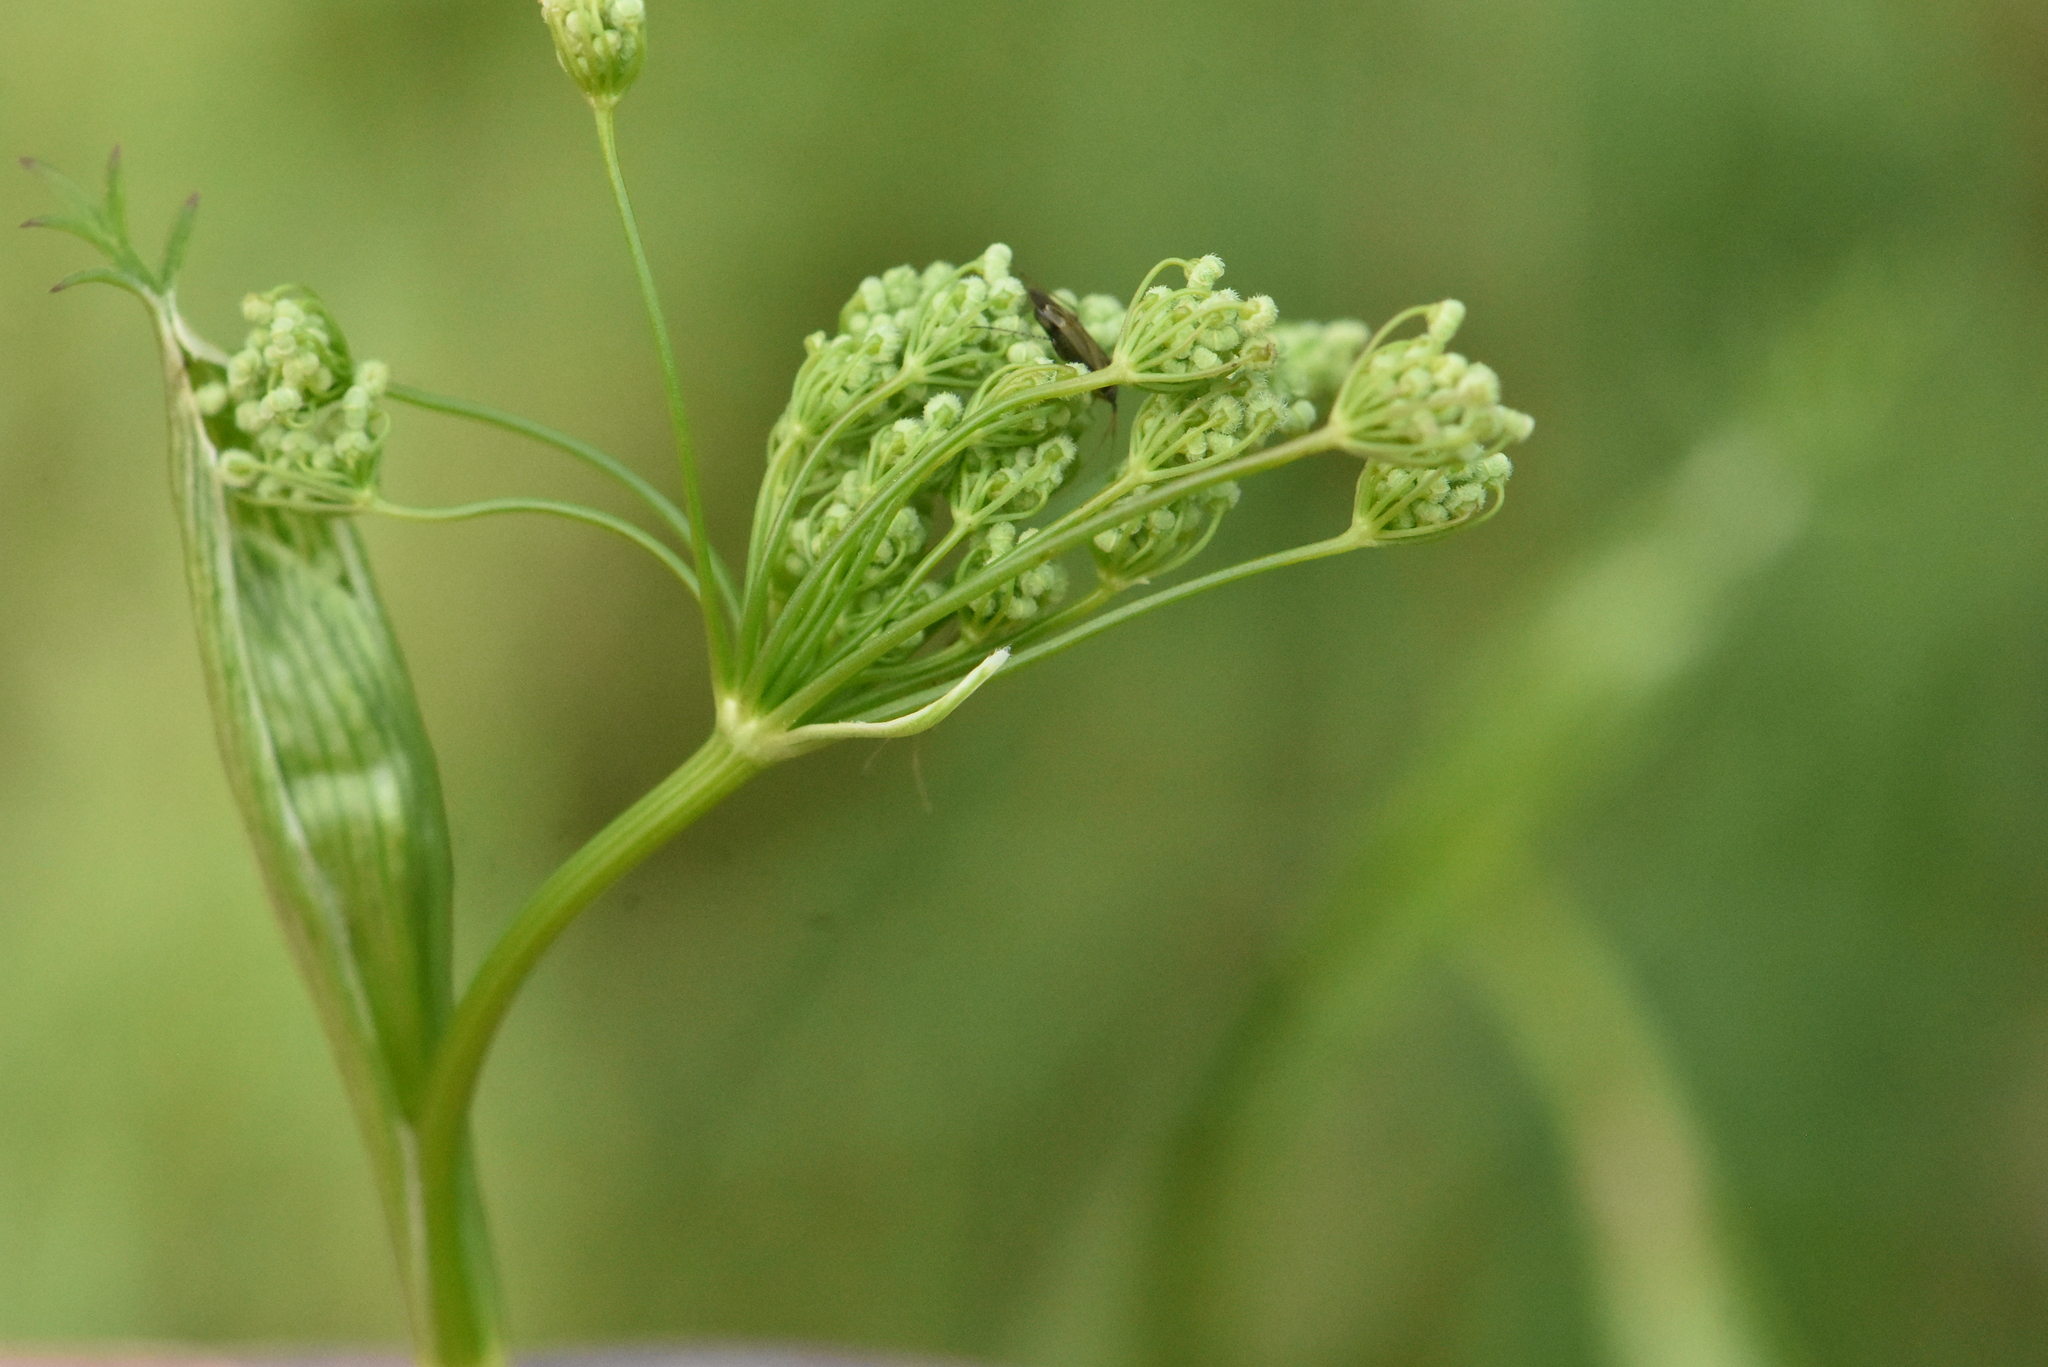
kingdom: Plantae
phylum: Tracheophyta
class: Magnoliopsida
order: Apiales
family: Apiaceae
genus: Pimpinella
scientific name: Pimpinella saxifraga
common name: Burnet-saxifrage
